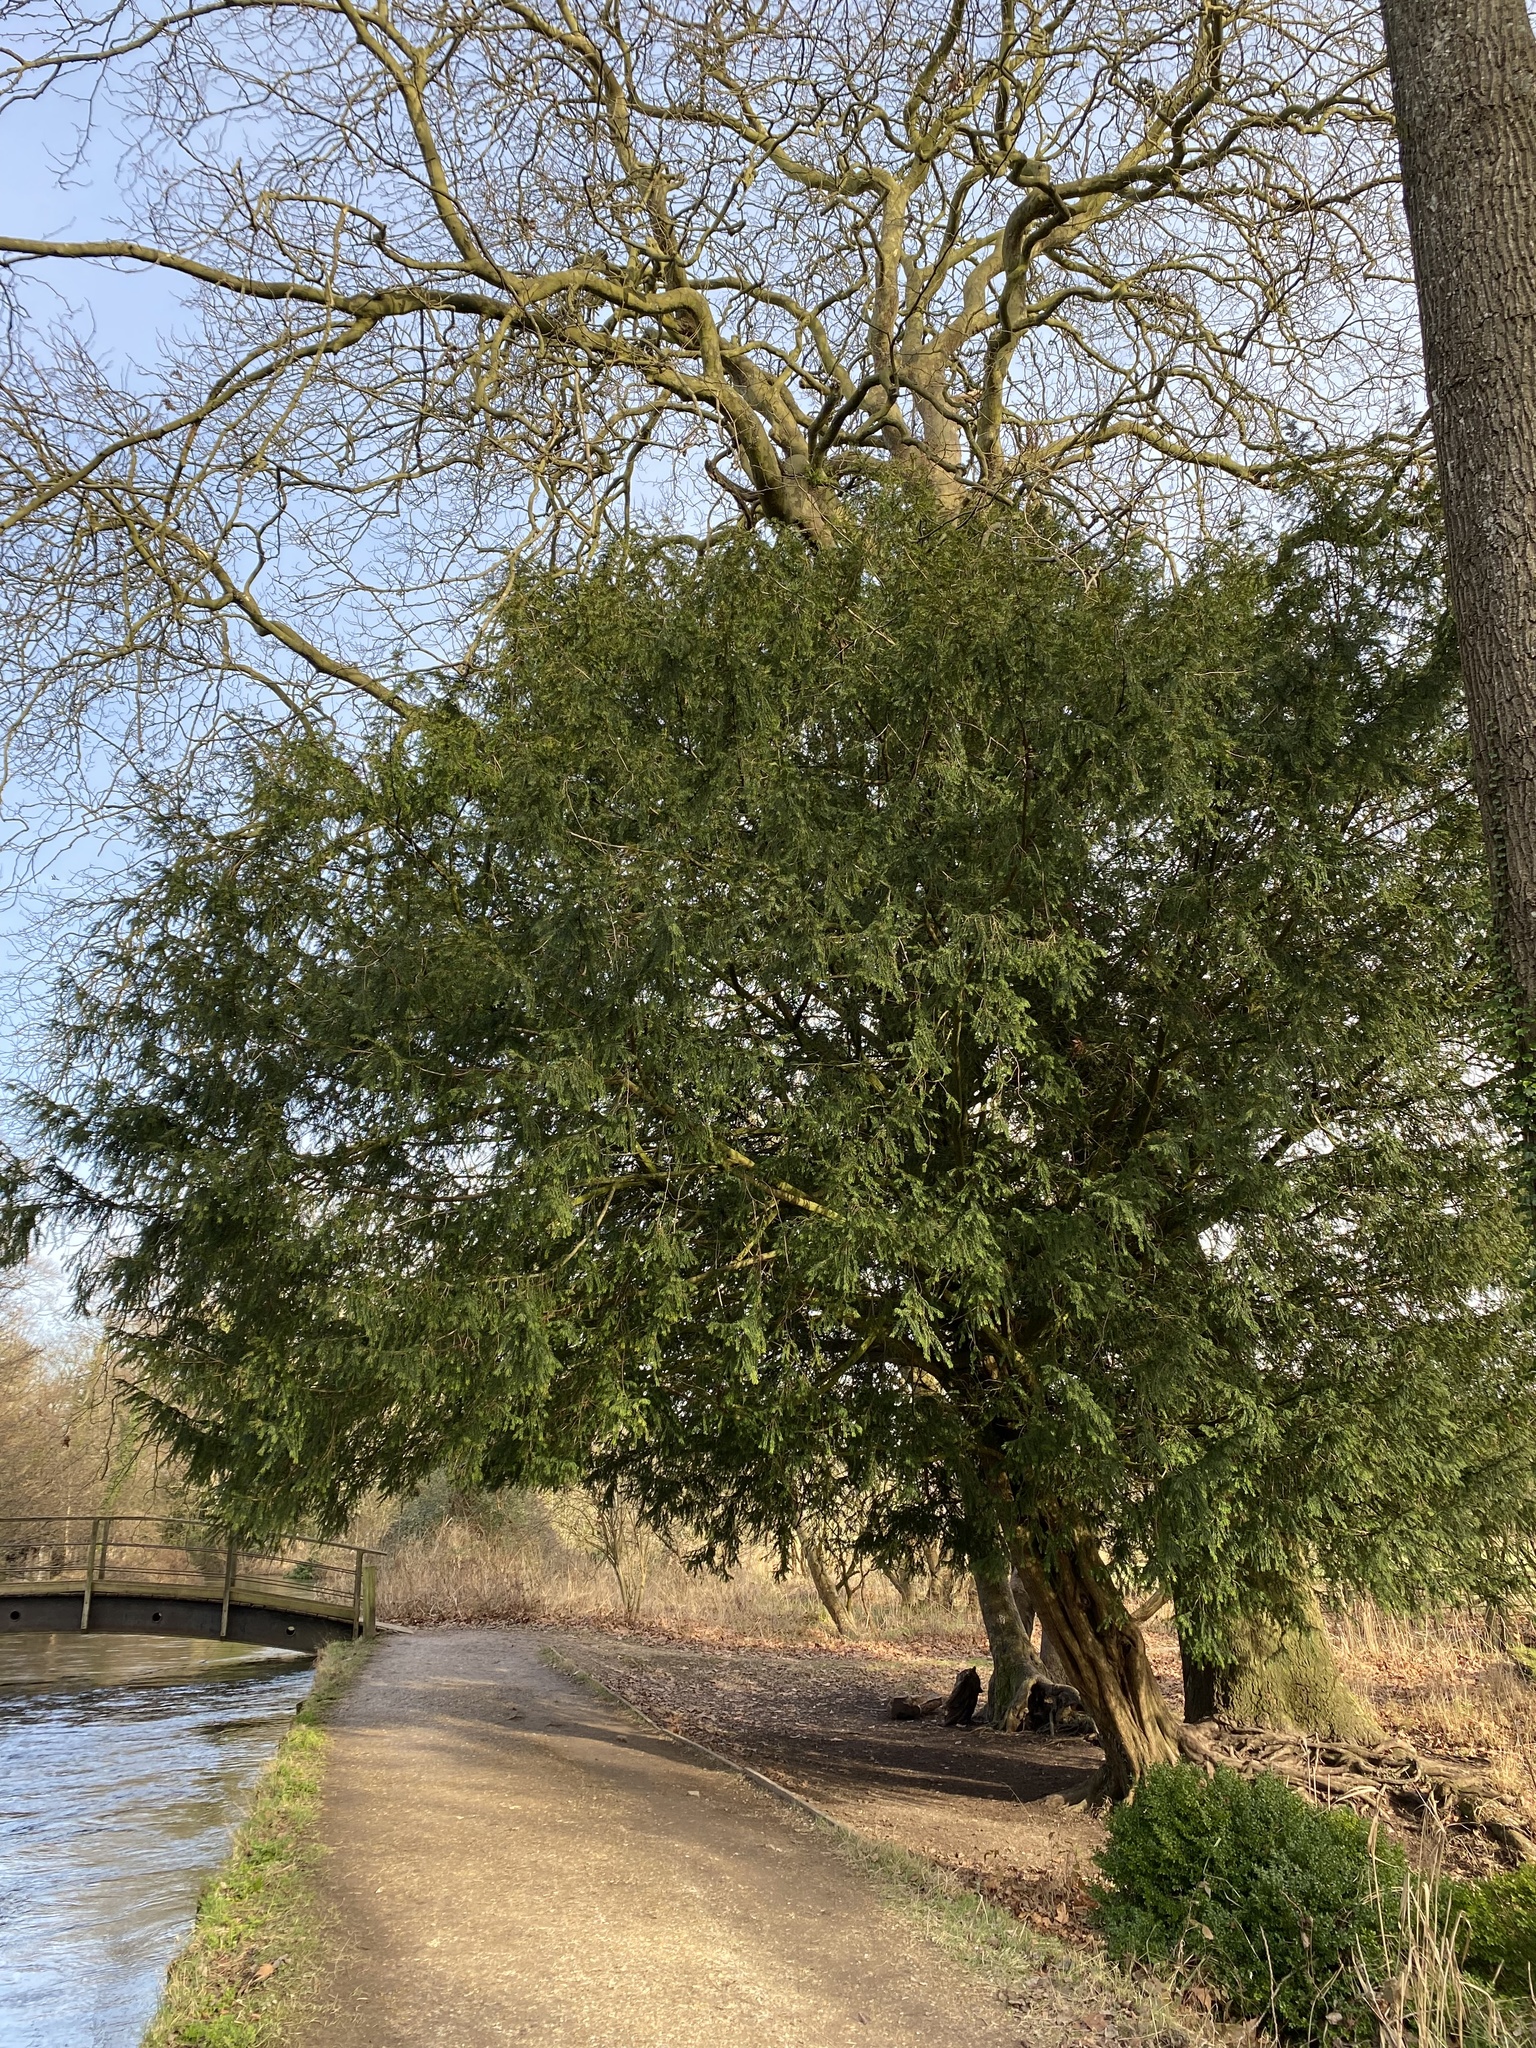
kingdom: Plantae
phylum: Tracheophyta
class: Pinopsida
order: Pinales
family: Taxaceae
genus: Taxus
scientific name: Taxus baccata
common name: Yew
